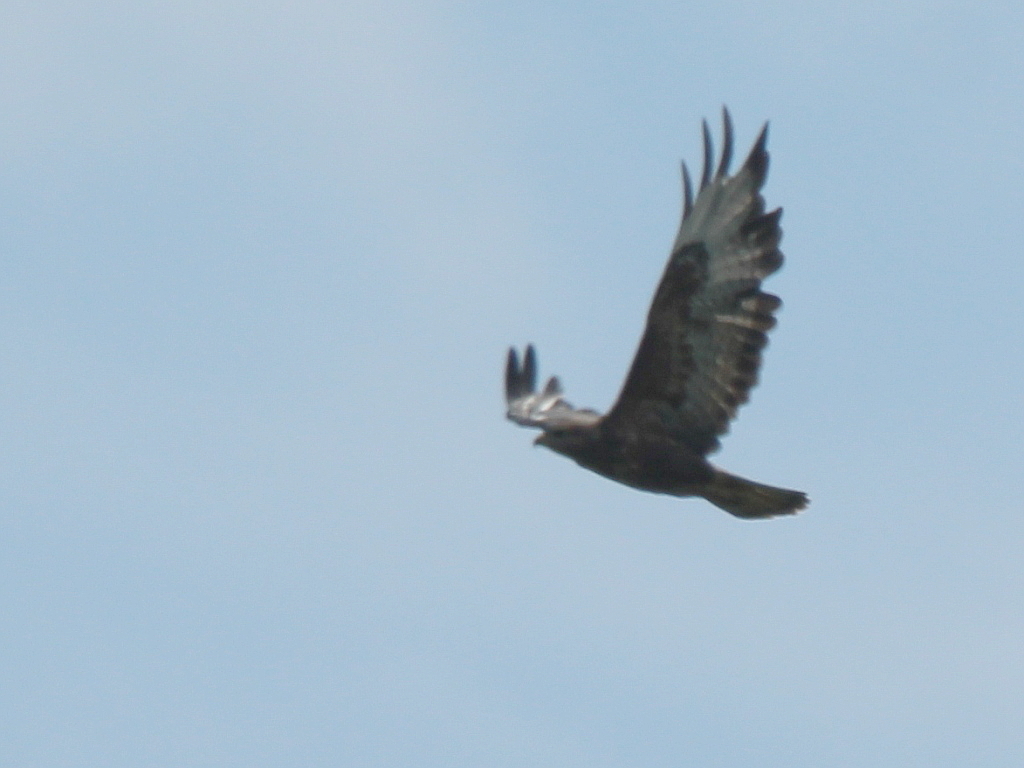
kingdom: Animalia
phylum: Chordata
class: Aves
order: Accipitriformes
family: Accipitridae
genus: Buteo
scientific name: Buteo buteo
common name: Common buzzard
